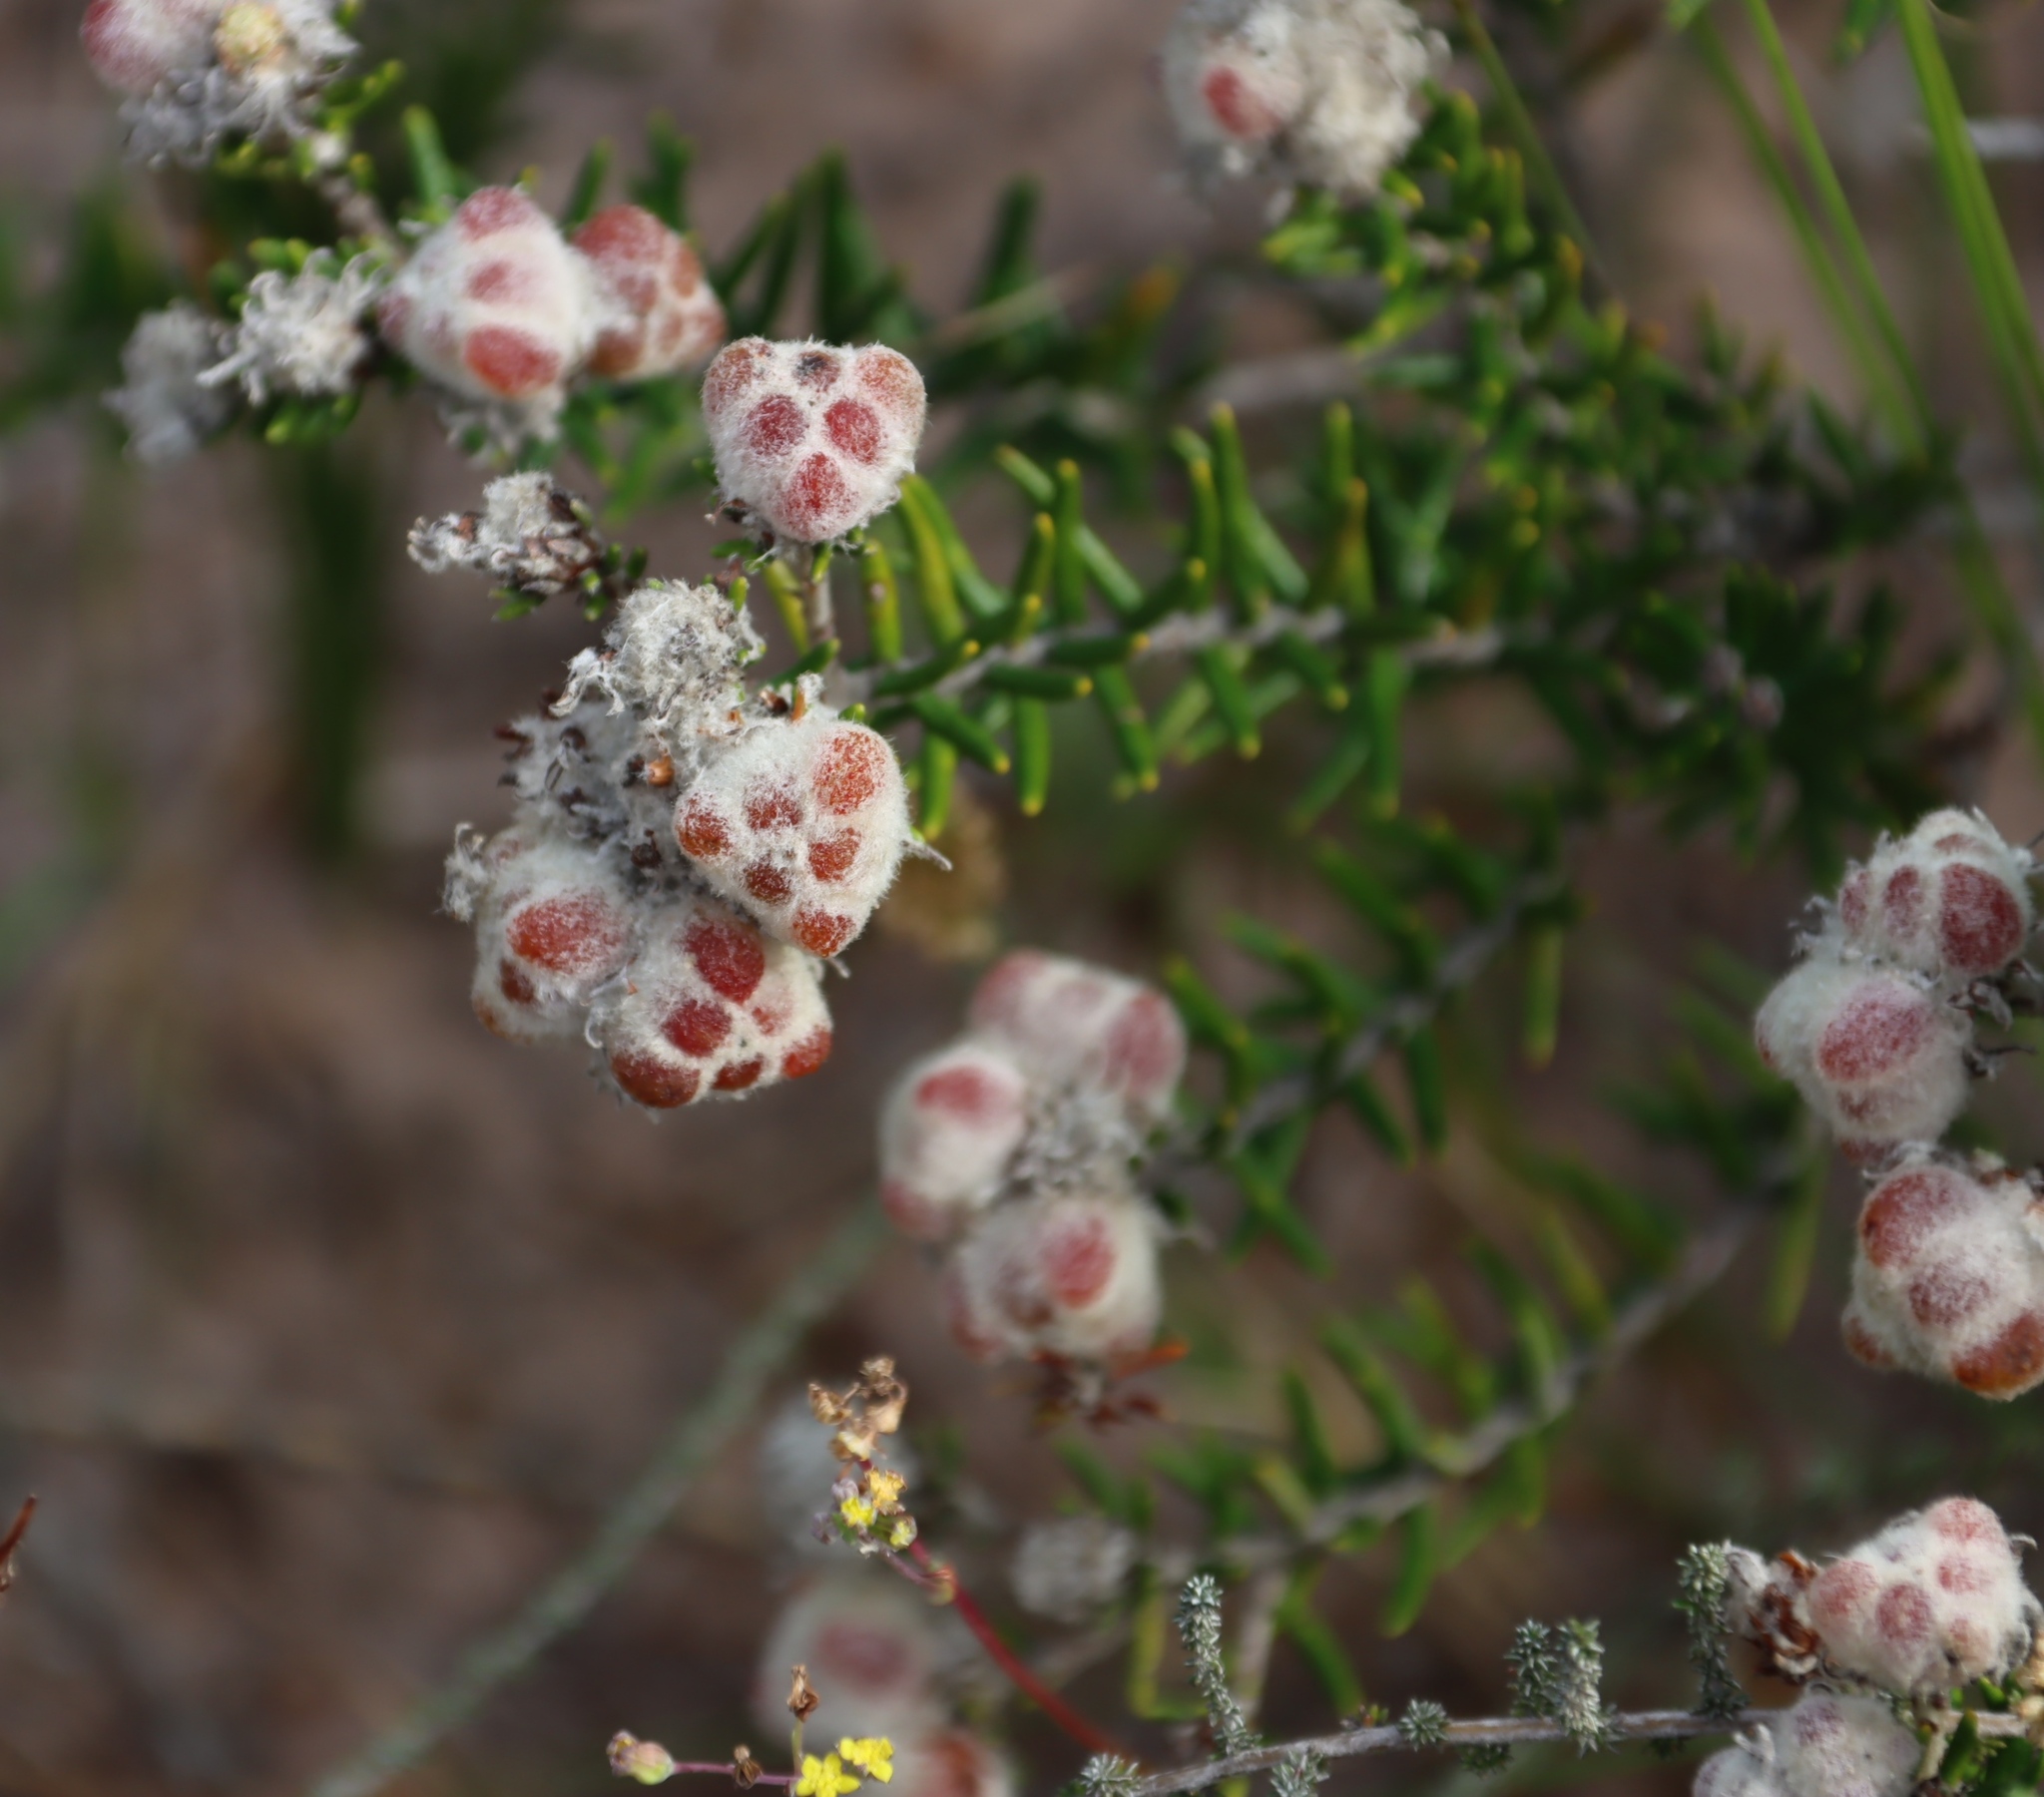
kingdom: Plantae
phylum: Tracheophyta
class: Magnoliopsida
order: Rosales
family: Rhamnaceae
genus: Trichocephalus
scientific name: Trichocephalus stipularis
